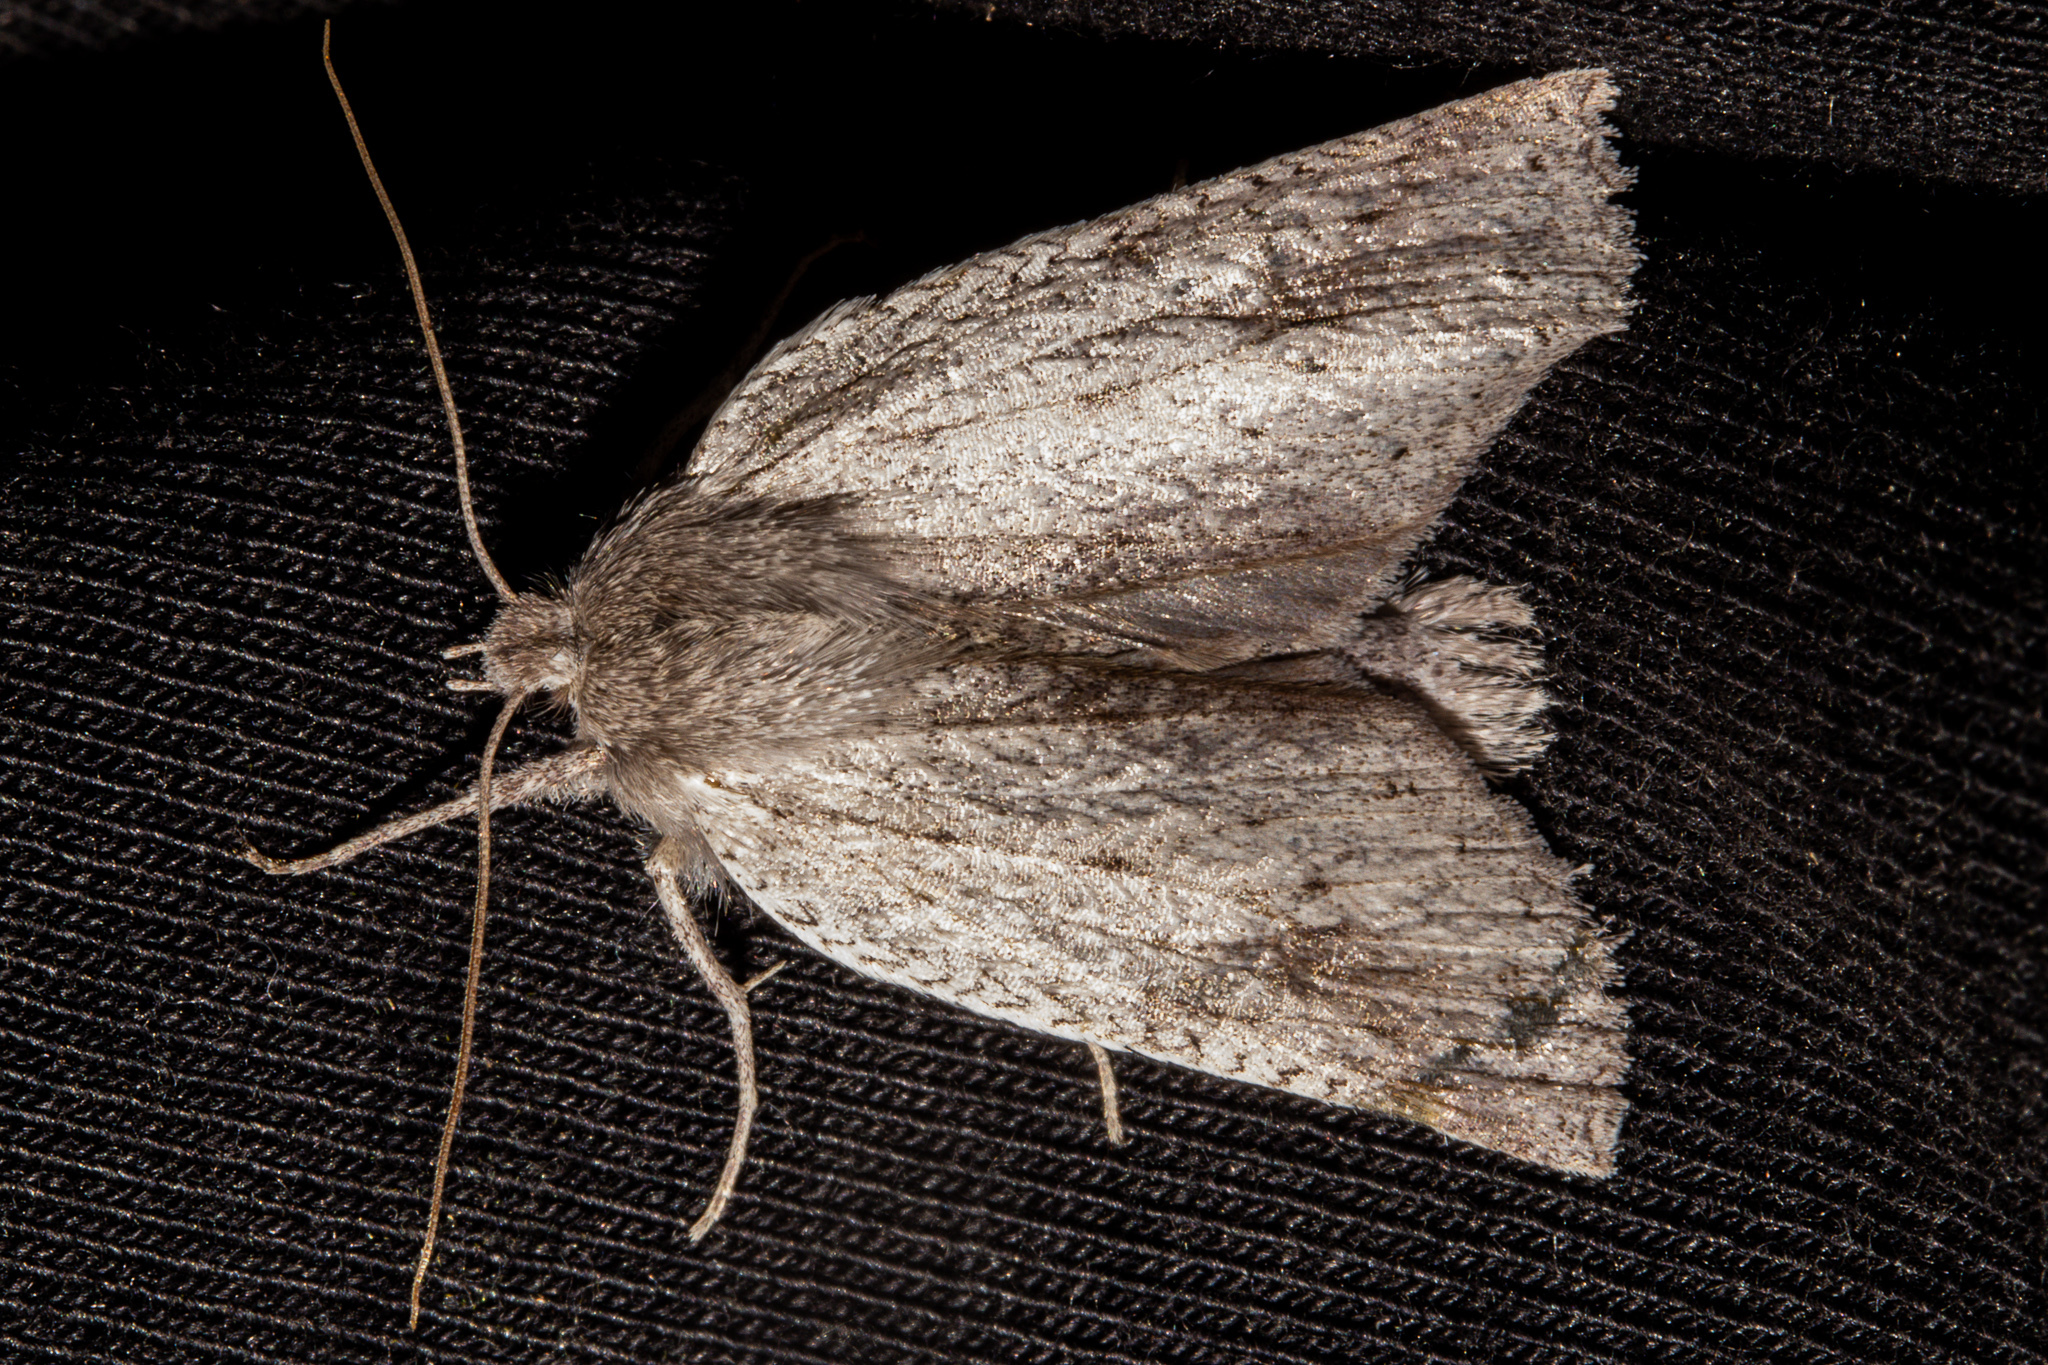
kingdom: Animalia
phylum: Arthropoda
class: Insecta
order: Lepidoptera
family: Geometridae
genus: Declana
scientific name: Declana leptomera
